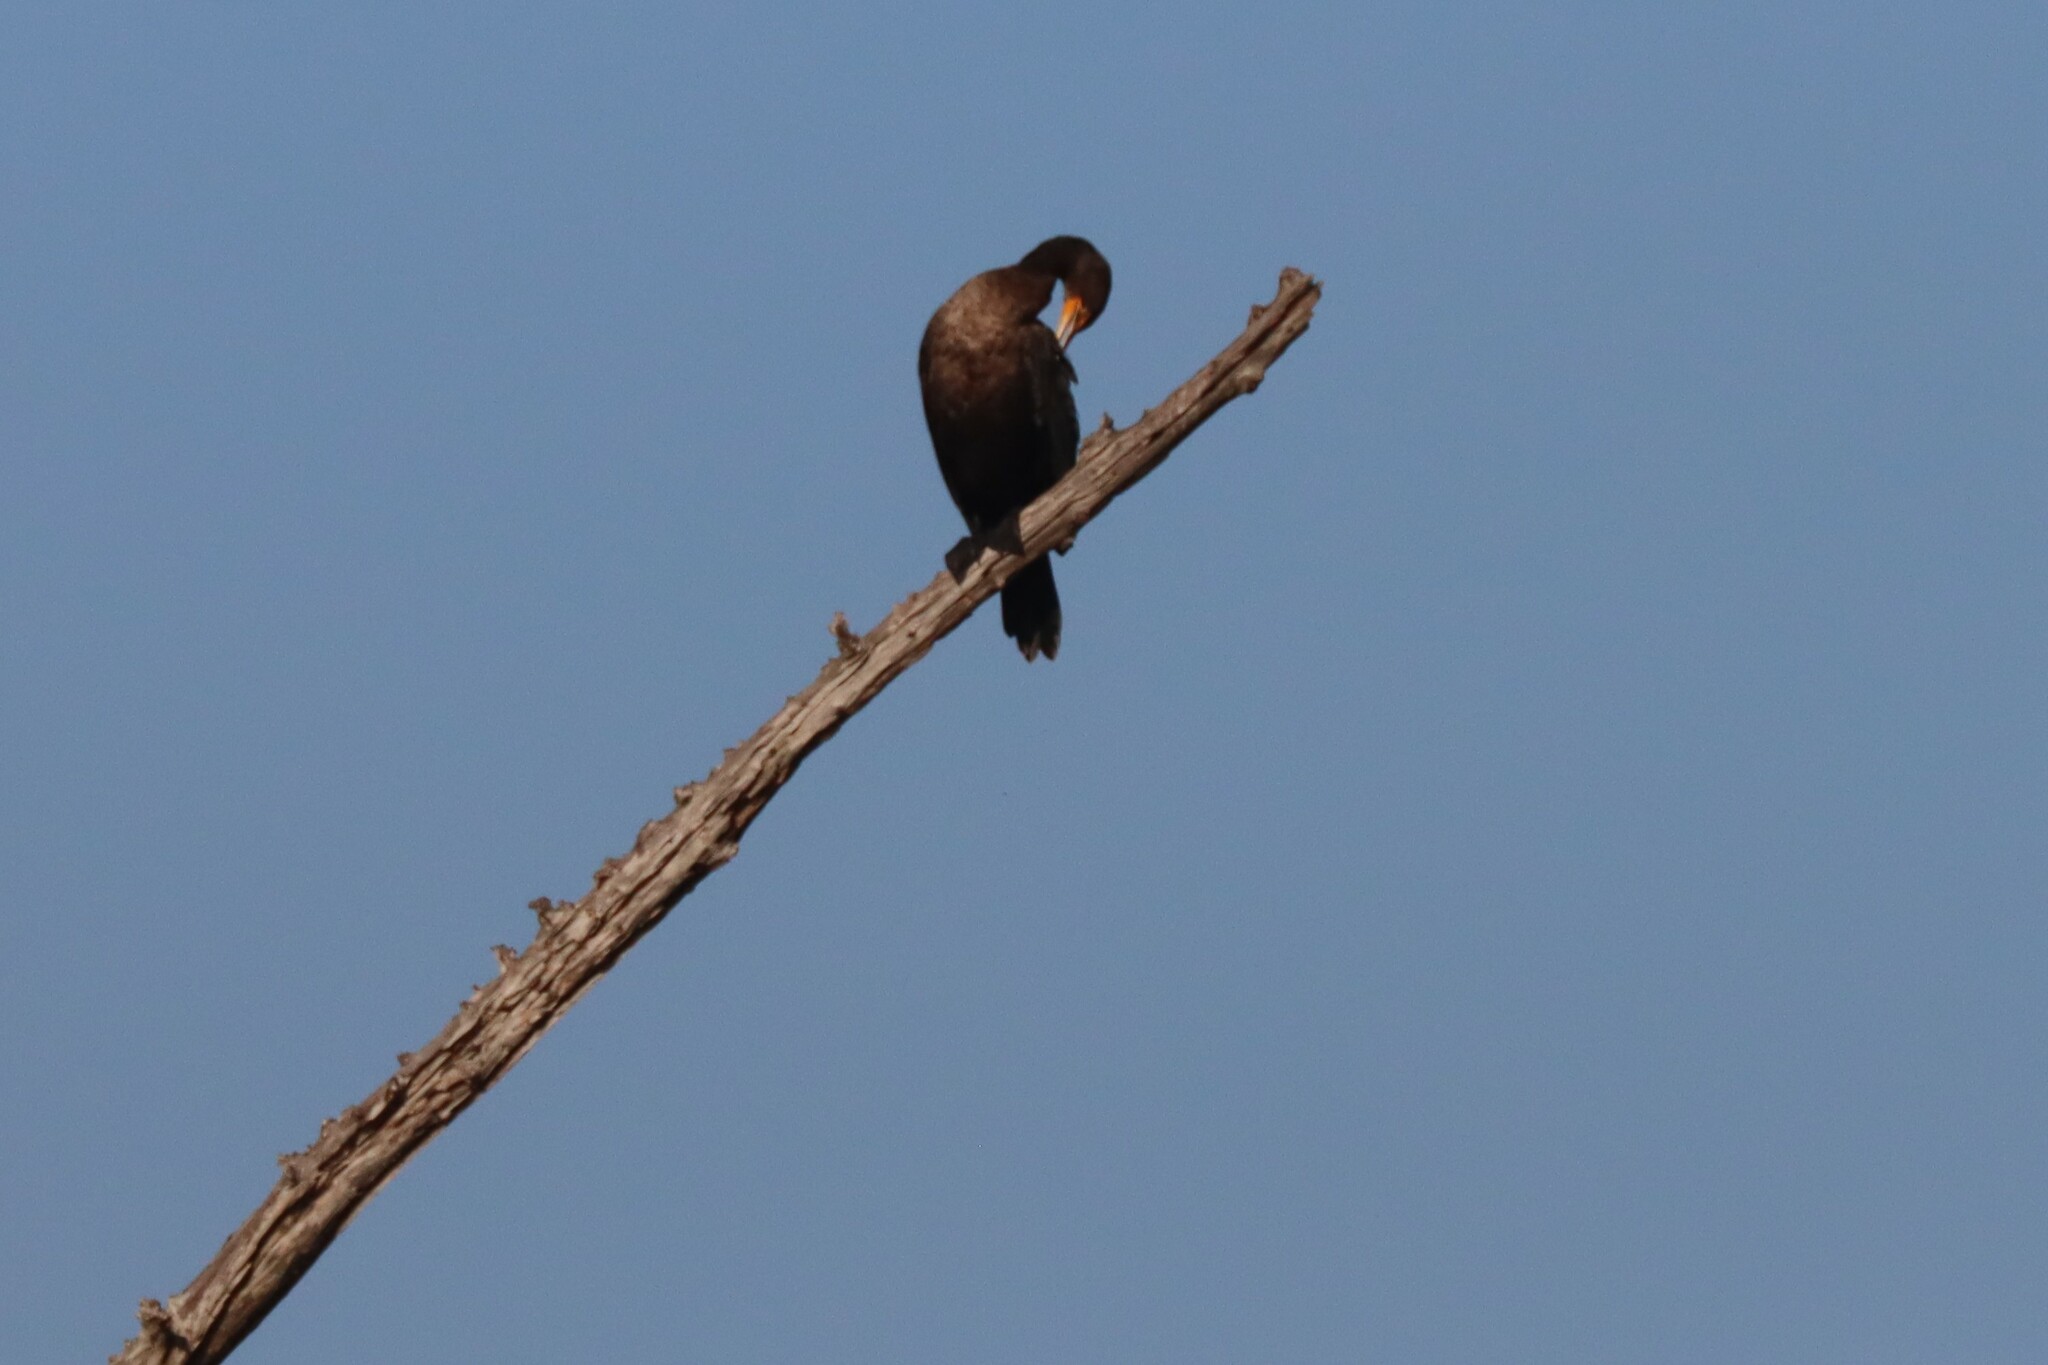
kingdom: Animalia
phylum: Chordata
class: Aves
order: Suliformes
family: Phalacrocoracidae
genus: Phalacrocorax
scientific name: Phalacrocorax auritus
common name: Double-crested cormorant
